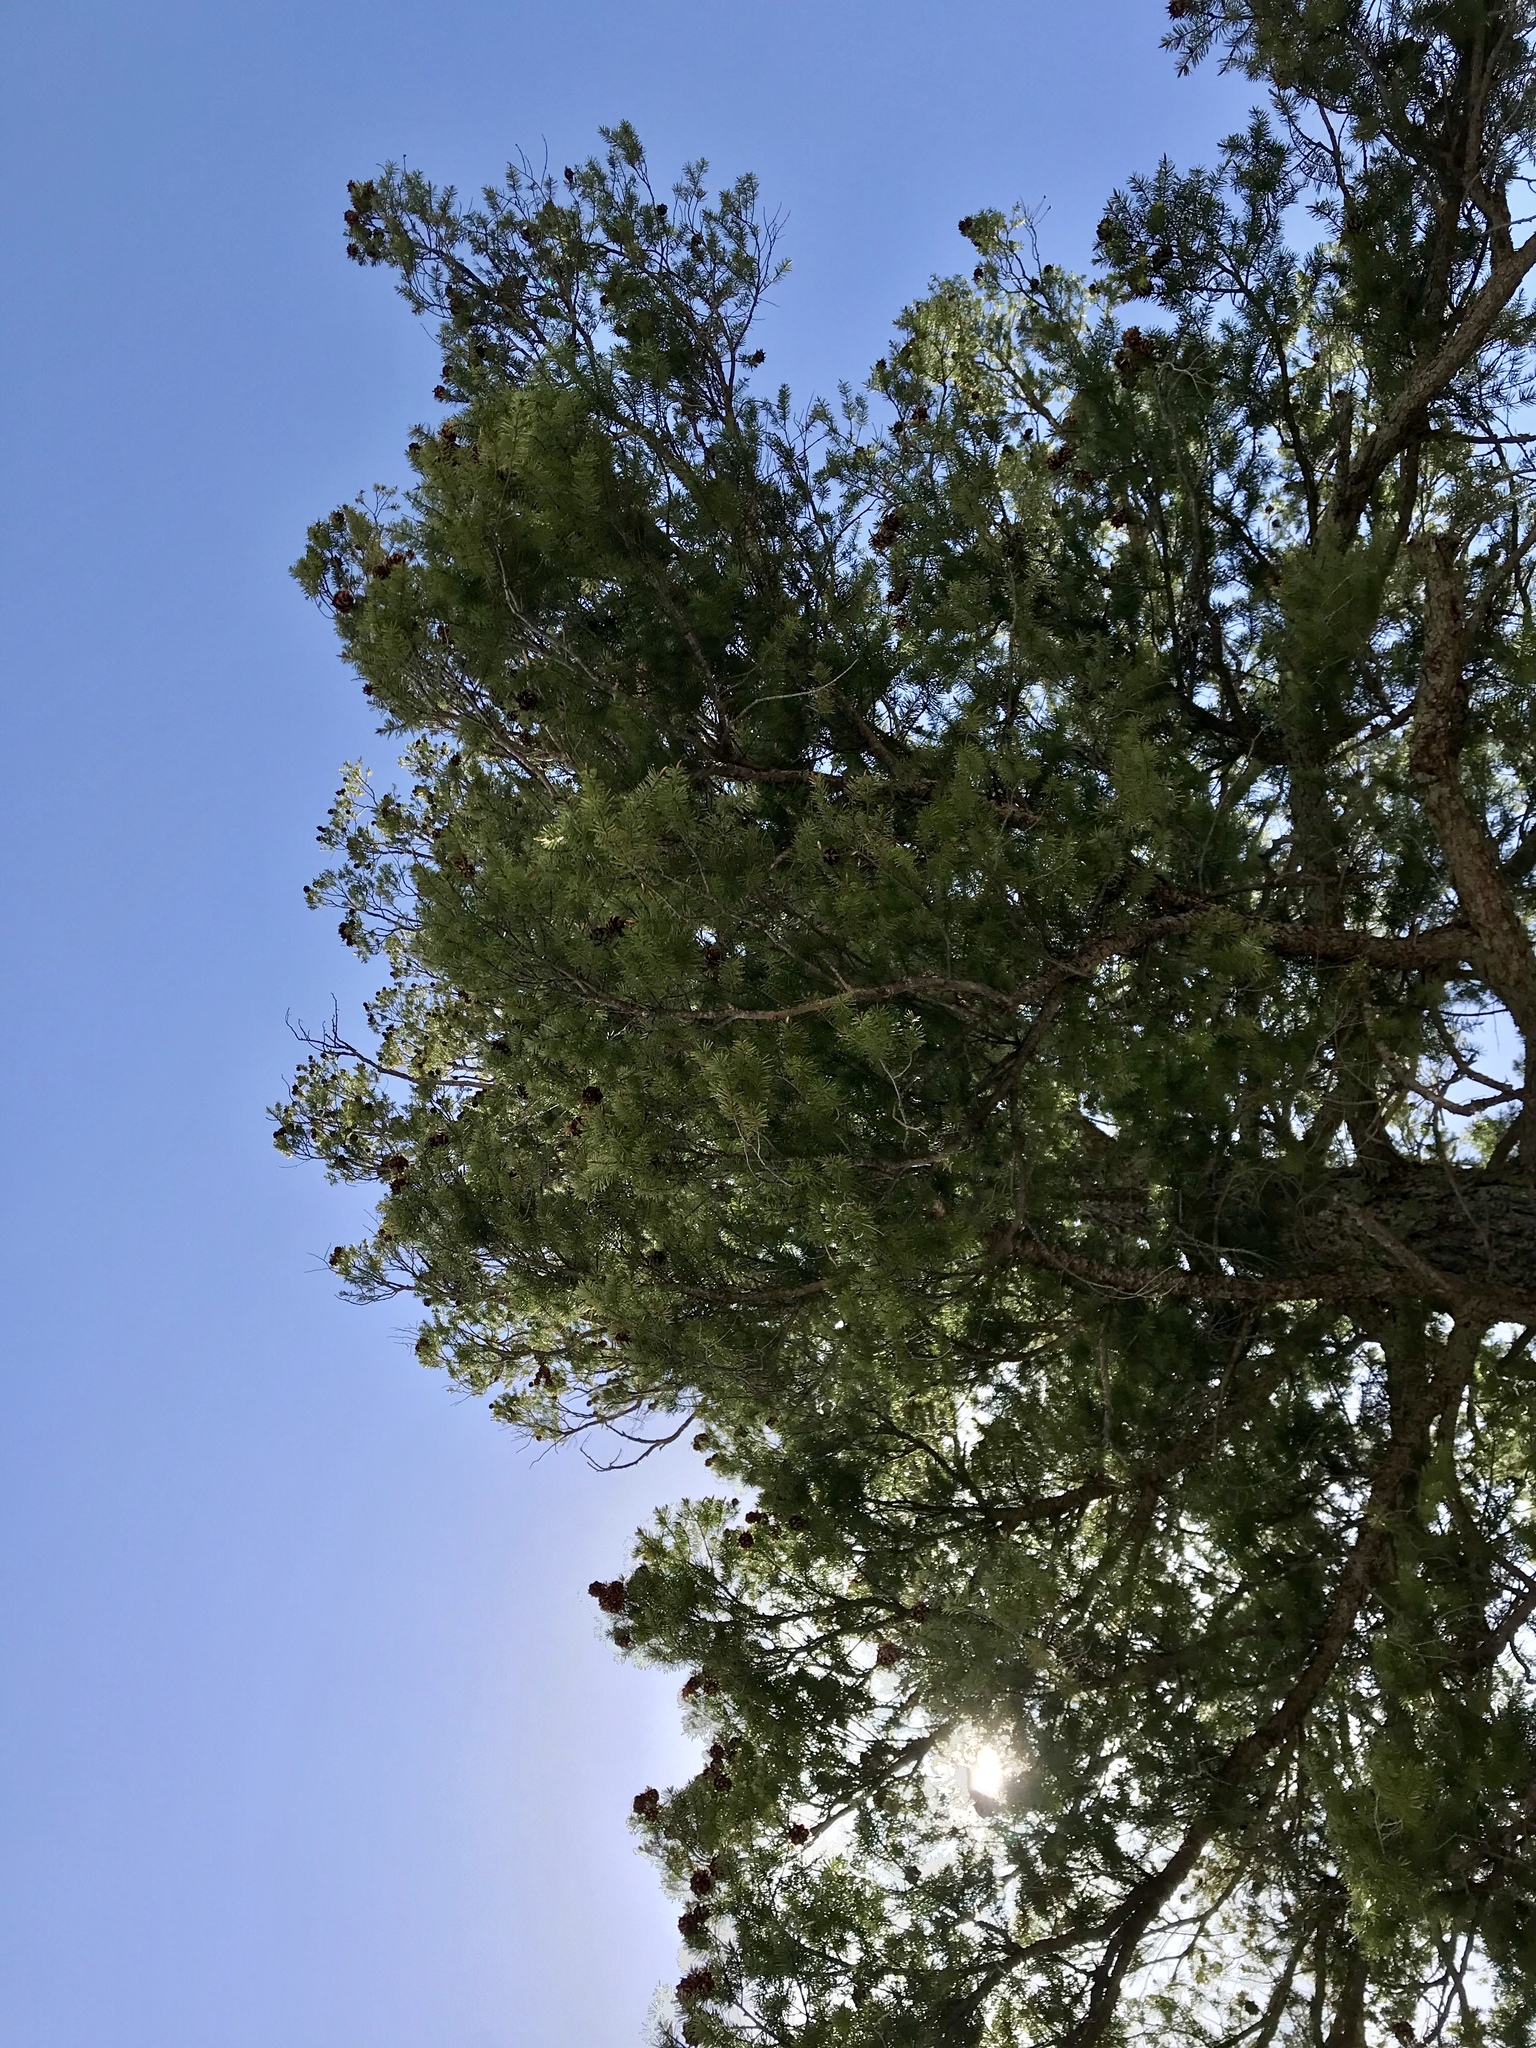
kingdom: Plantae
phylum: Tracheophyta
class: Pinopsida
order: Pinales
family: Pinaceae
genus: Pseudotsuga
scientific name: Pseudotsuga menziesii
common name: Douglas fir
